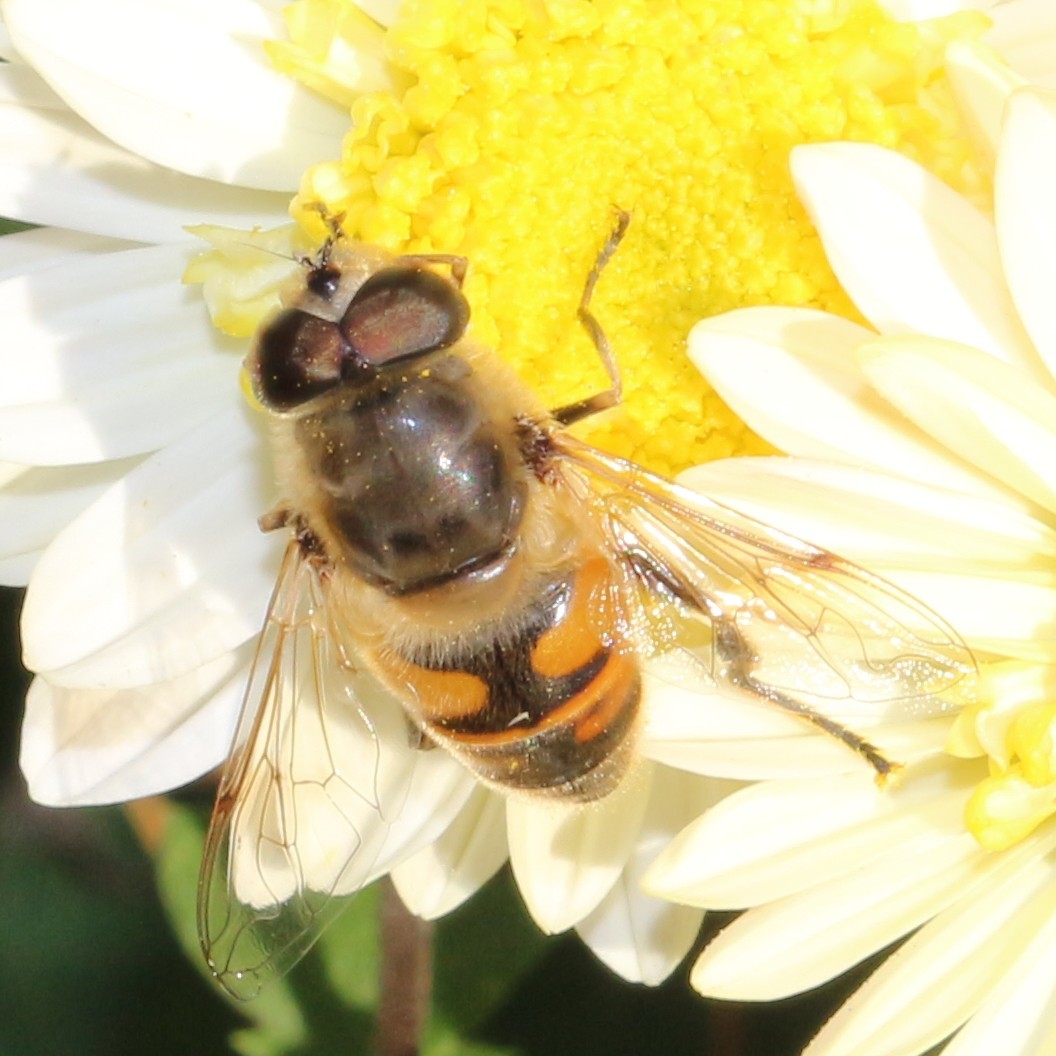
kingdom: Animalia
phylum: Arthropoda
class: Insecta
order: Diptera
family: Syrphidae
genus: Eristalis
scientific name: Eristalis tenax
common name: Drone fly
